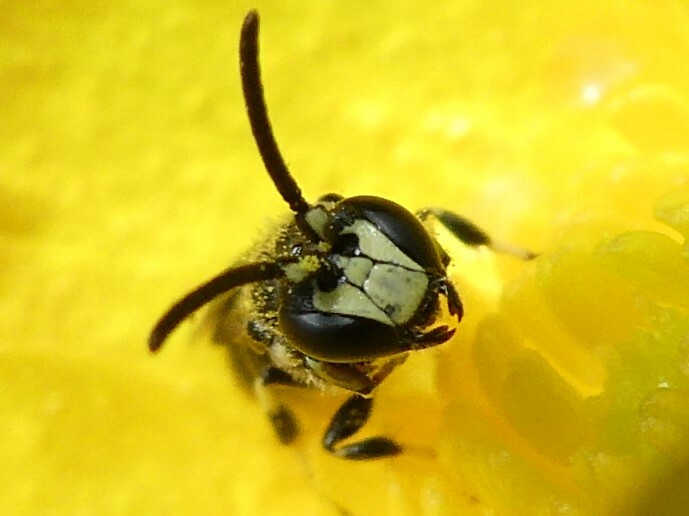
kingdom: Animalia
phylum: Arthropoda
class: Insecta
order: Hymenoptera
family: Colletidae
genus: Hylaeus
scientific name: Hylaeus annulatus
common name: Annulate masked bee
